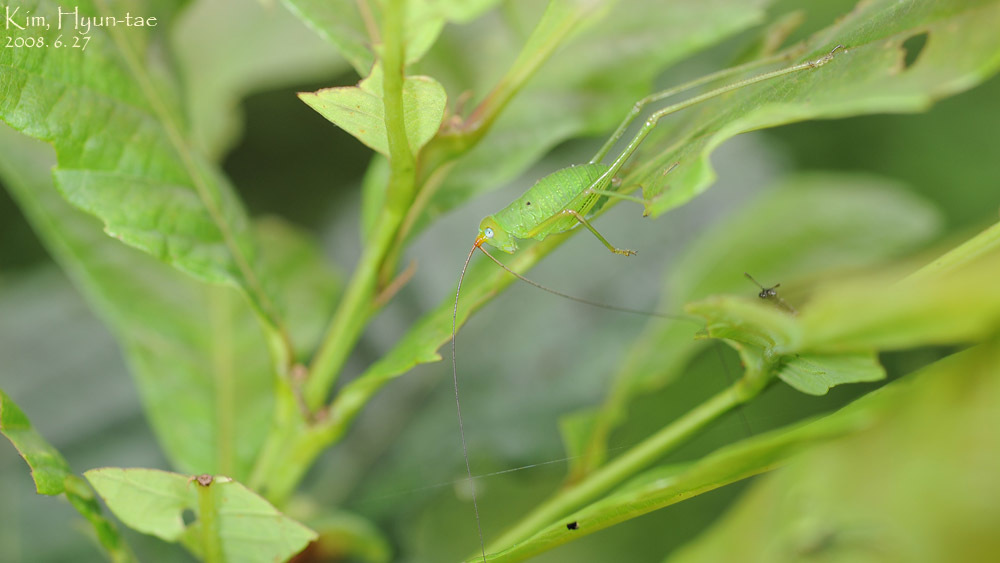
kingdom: Animalia
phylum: Arthropoda
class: Insecta
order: Coleoptera
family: Attelabidae
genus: Paracycnotrachelus
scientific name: Paracycnotrachelus chinensis
